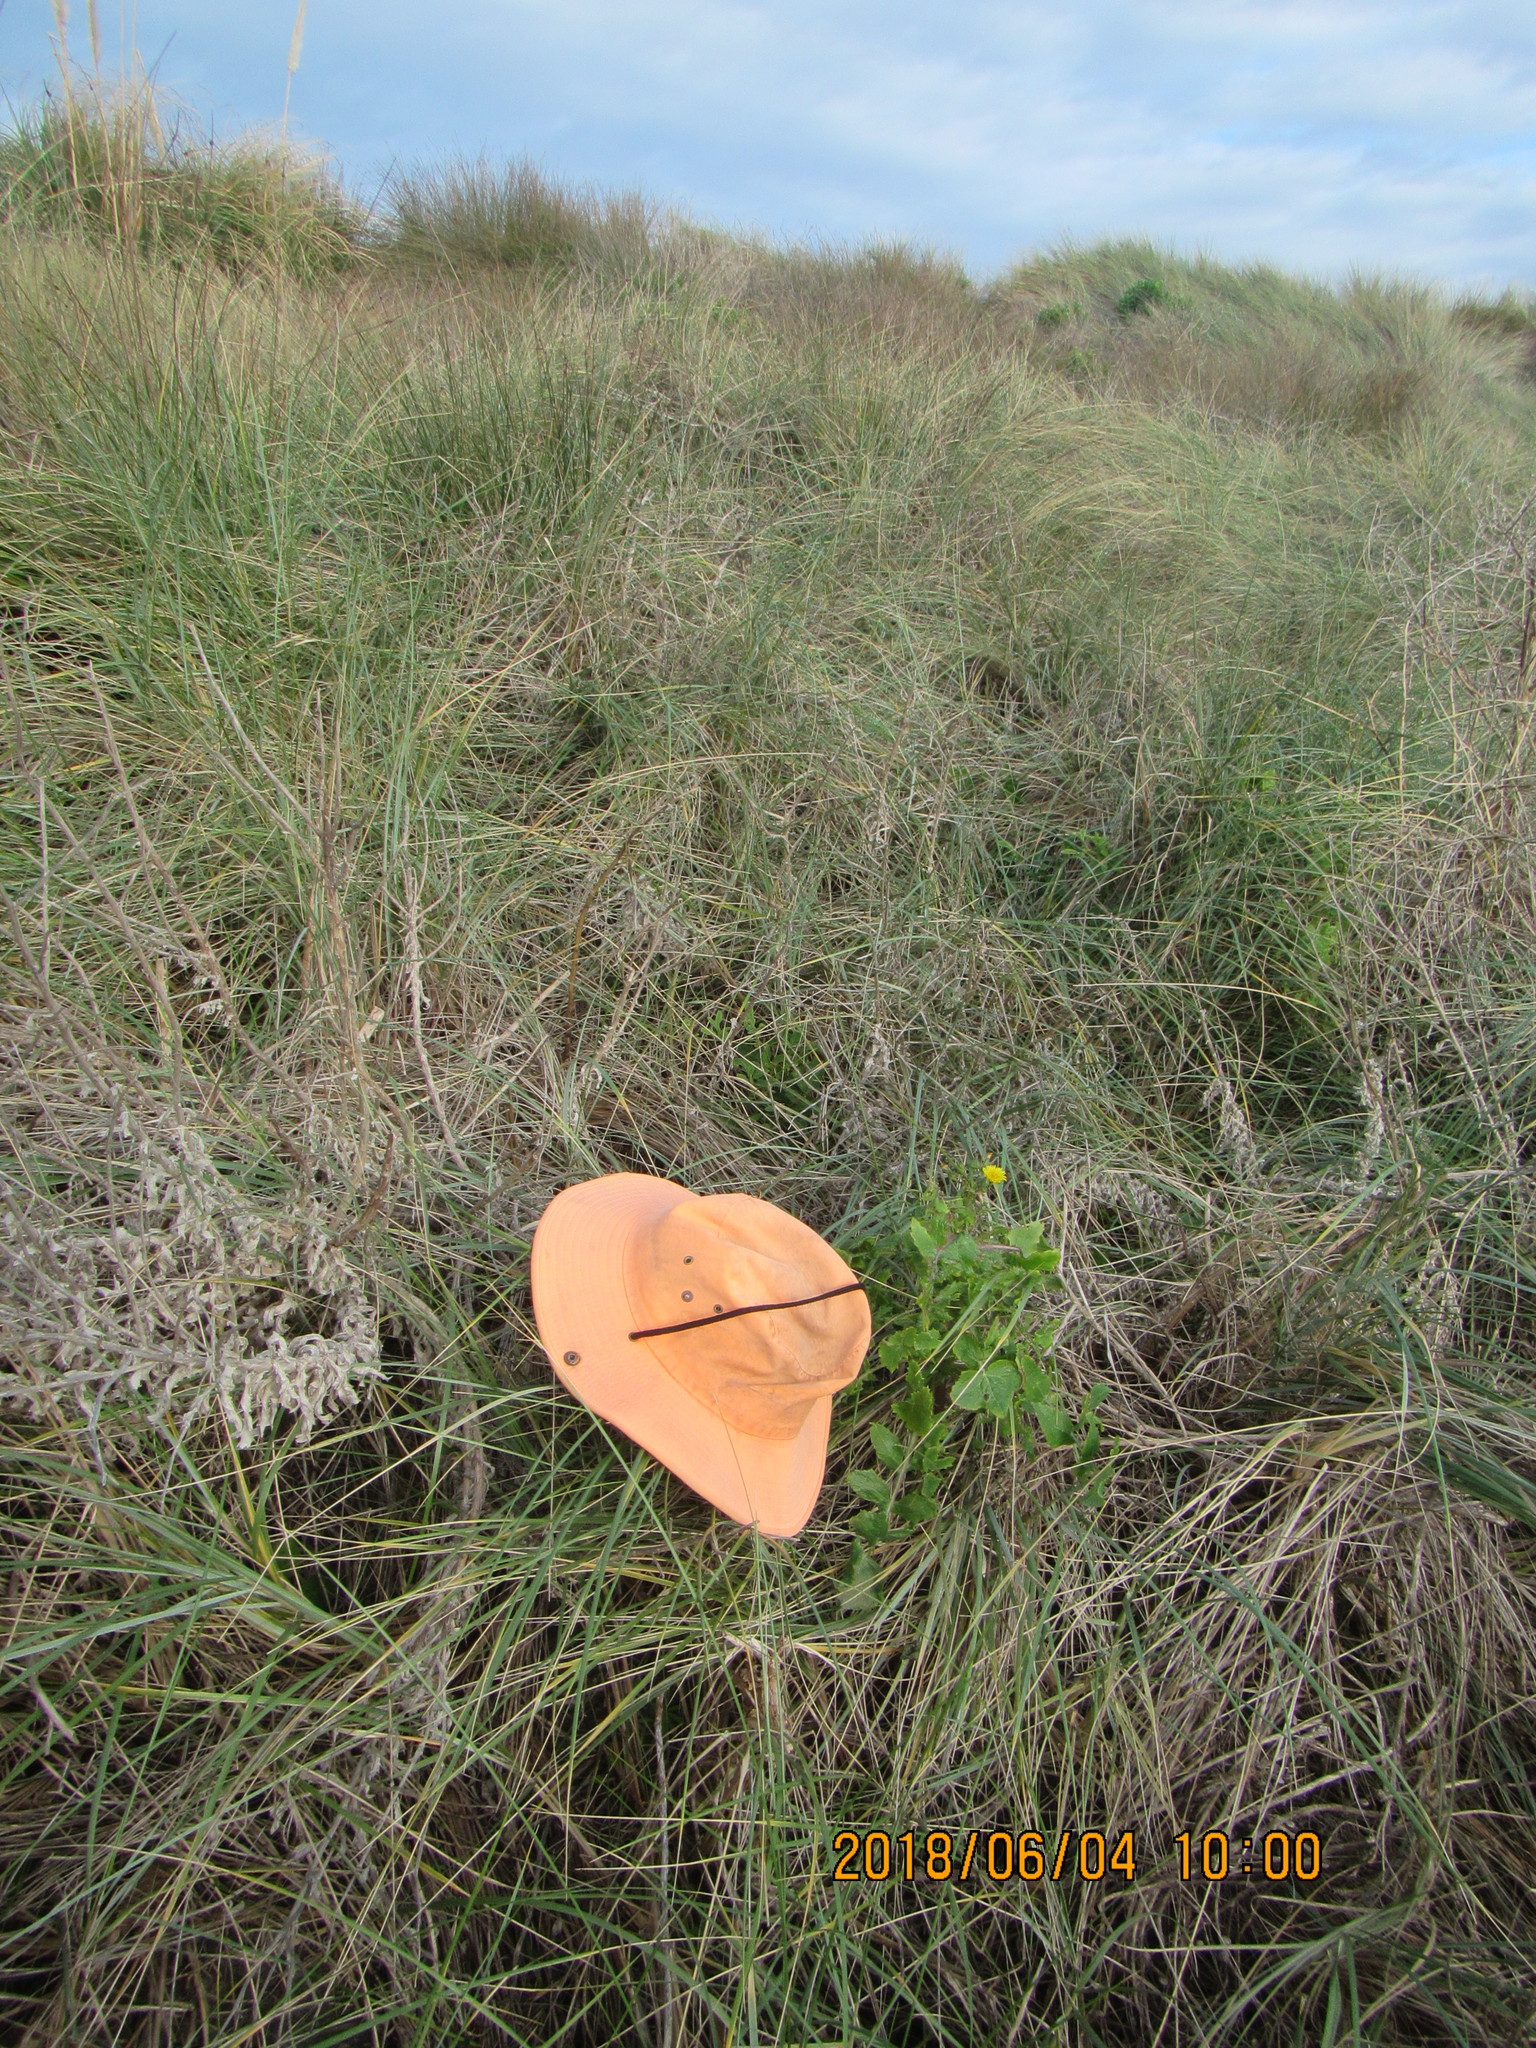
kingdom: Plantae
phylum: Tracheophyta
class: Magnoliopsida
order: Asterales
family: Asteraceae
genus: Sonchus
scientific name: Sonchus oleraceus
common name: Common sowthistle
